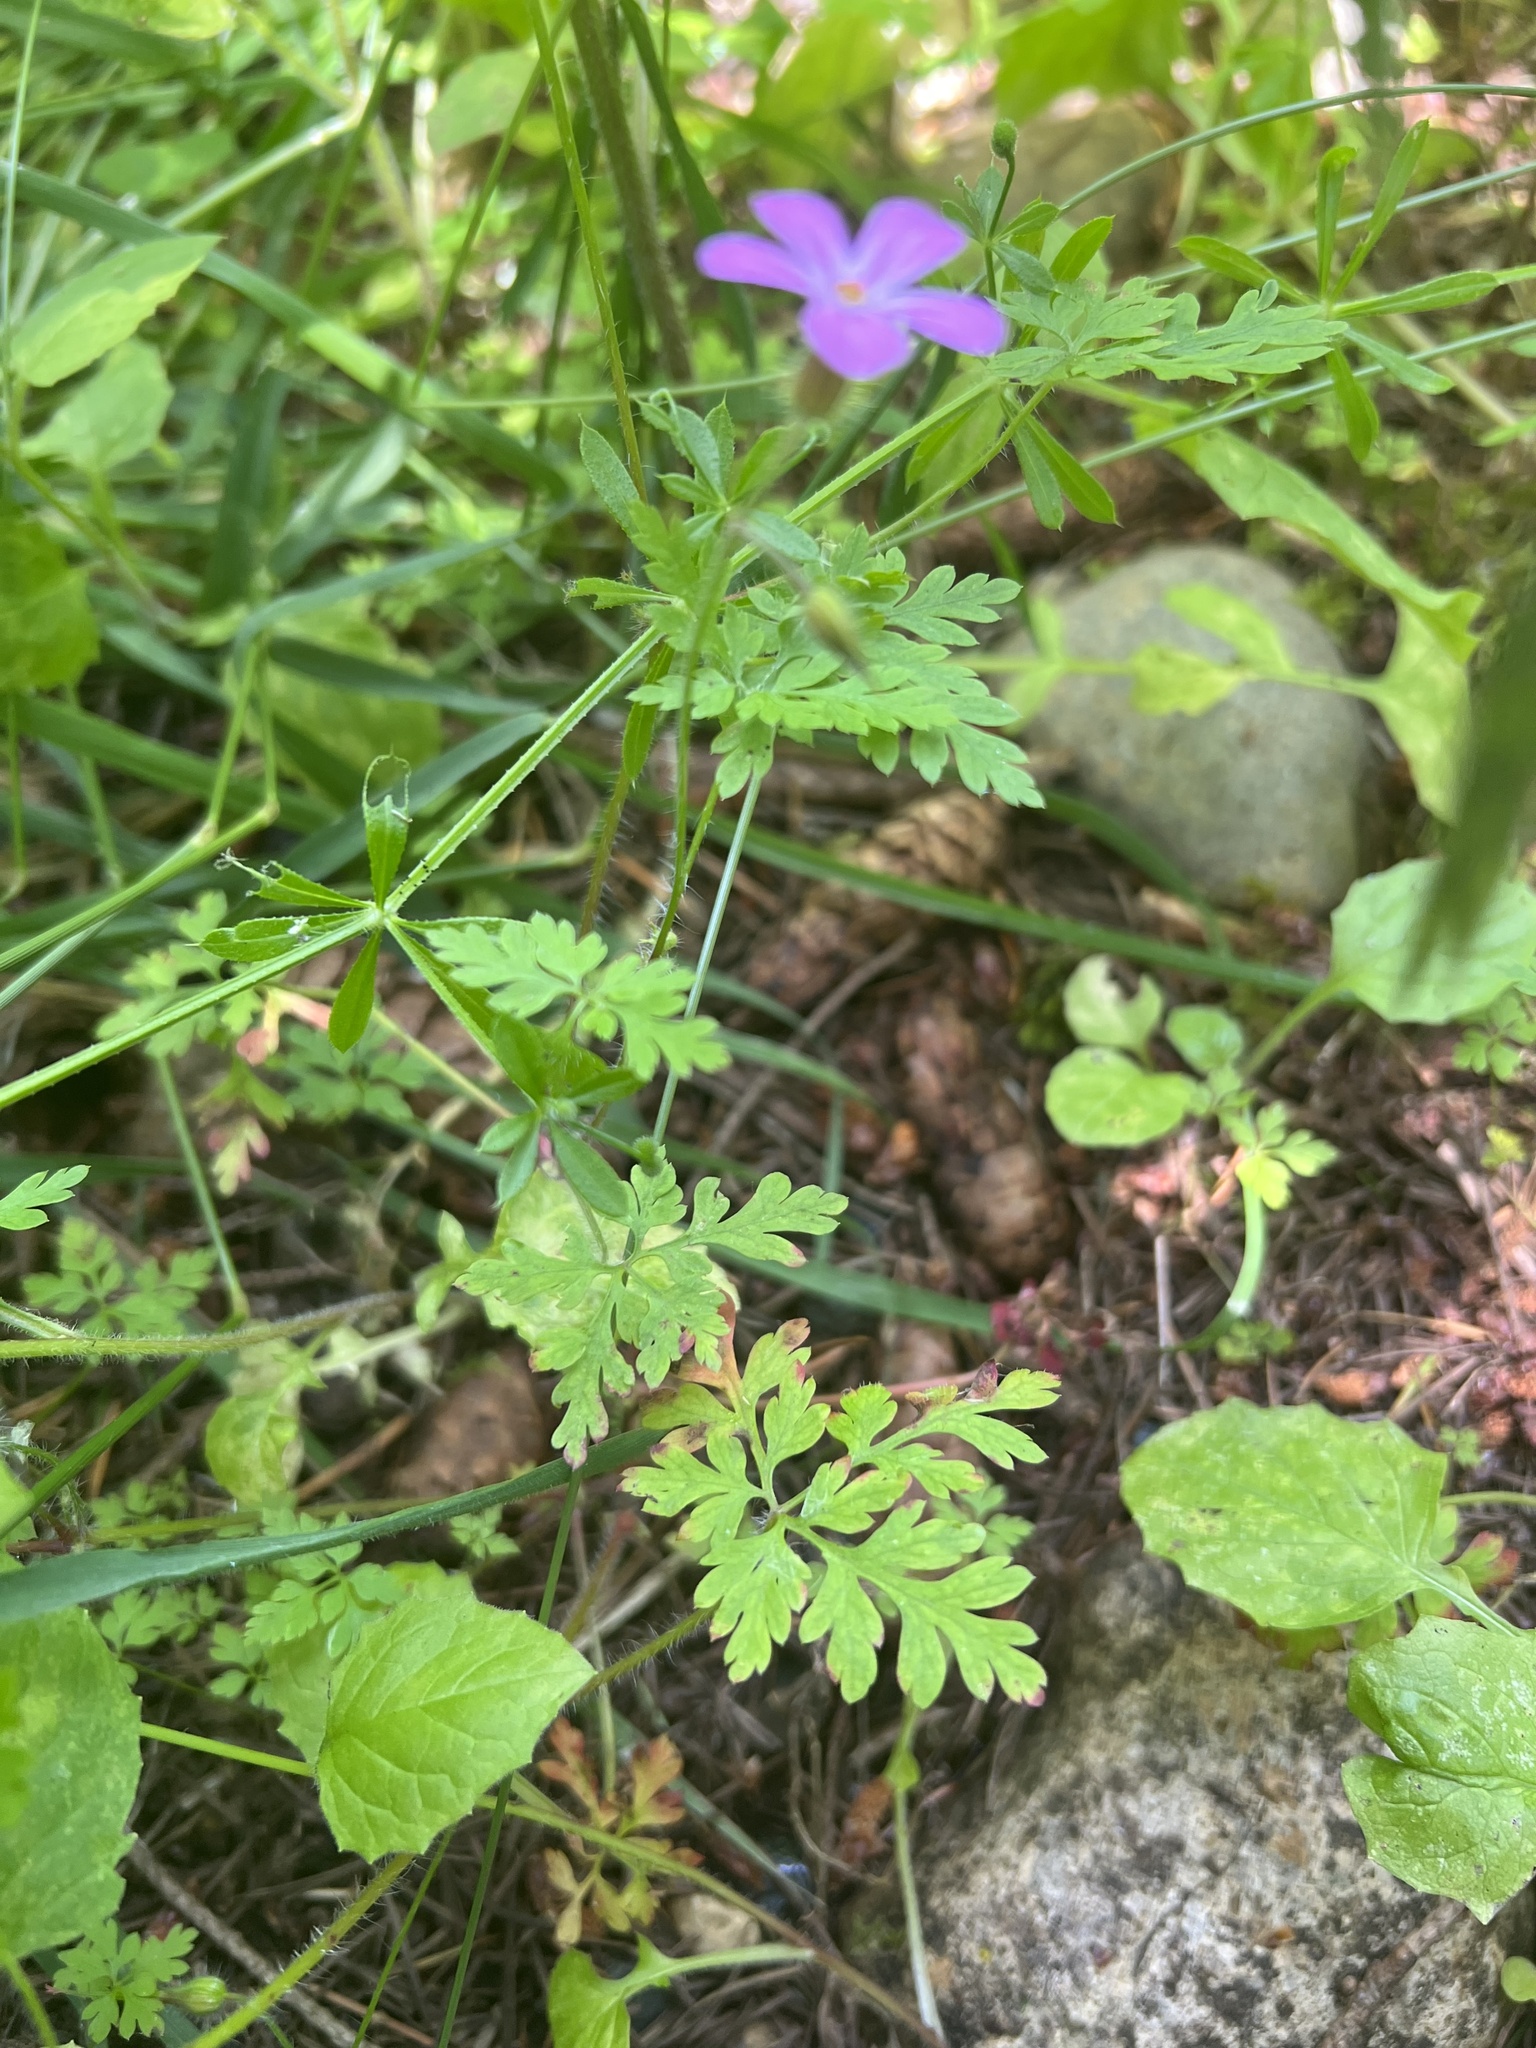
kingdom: Plantae
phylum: Tracheophyta
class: Magnoliopsida
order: Geraniales
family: Geraniaceae
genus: Geranium
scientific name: Geranium robertianum
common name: Herb-robert
